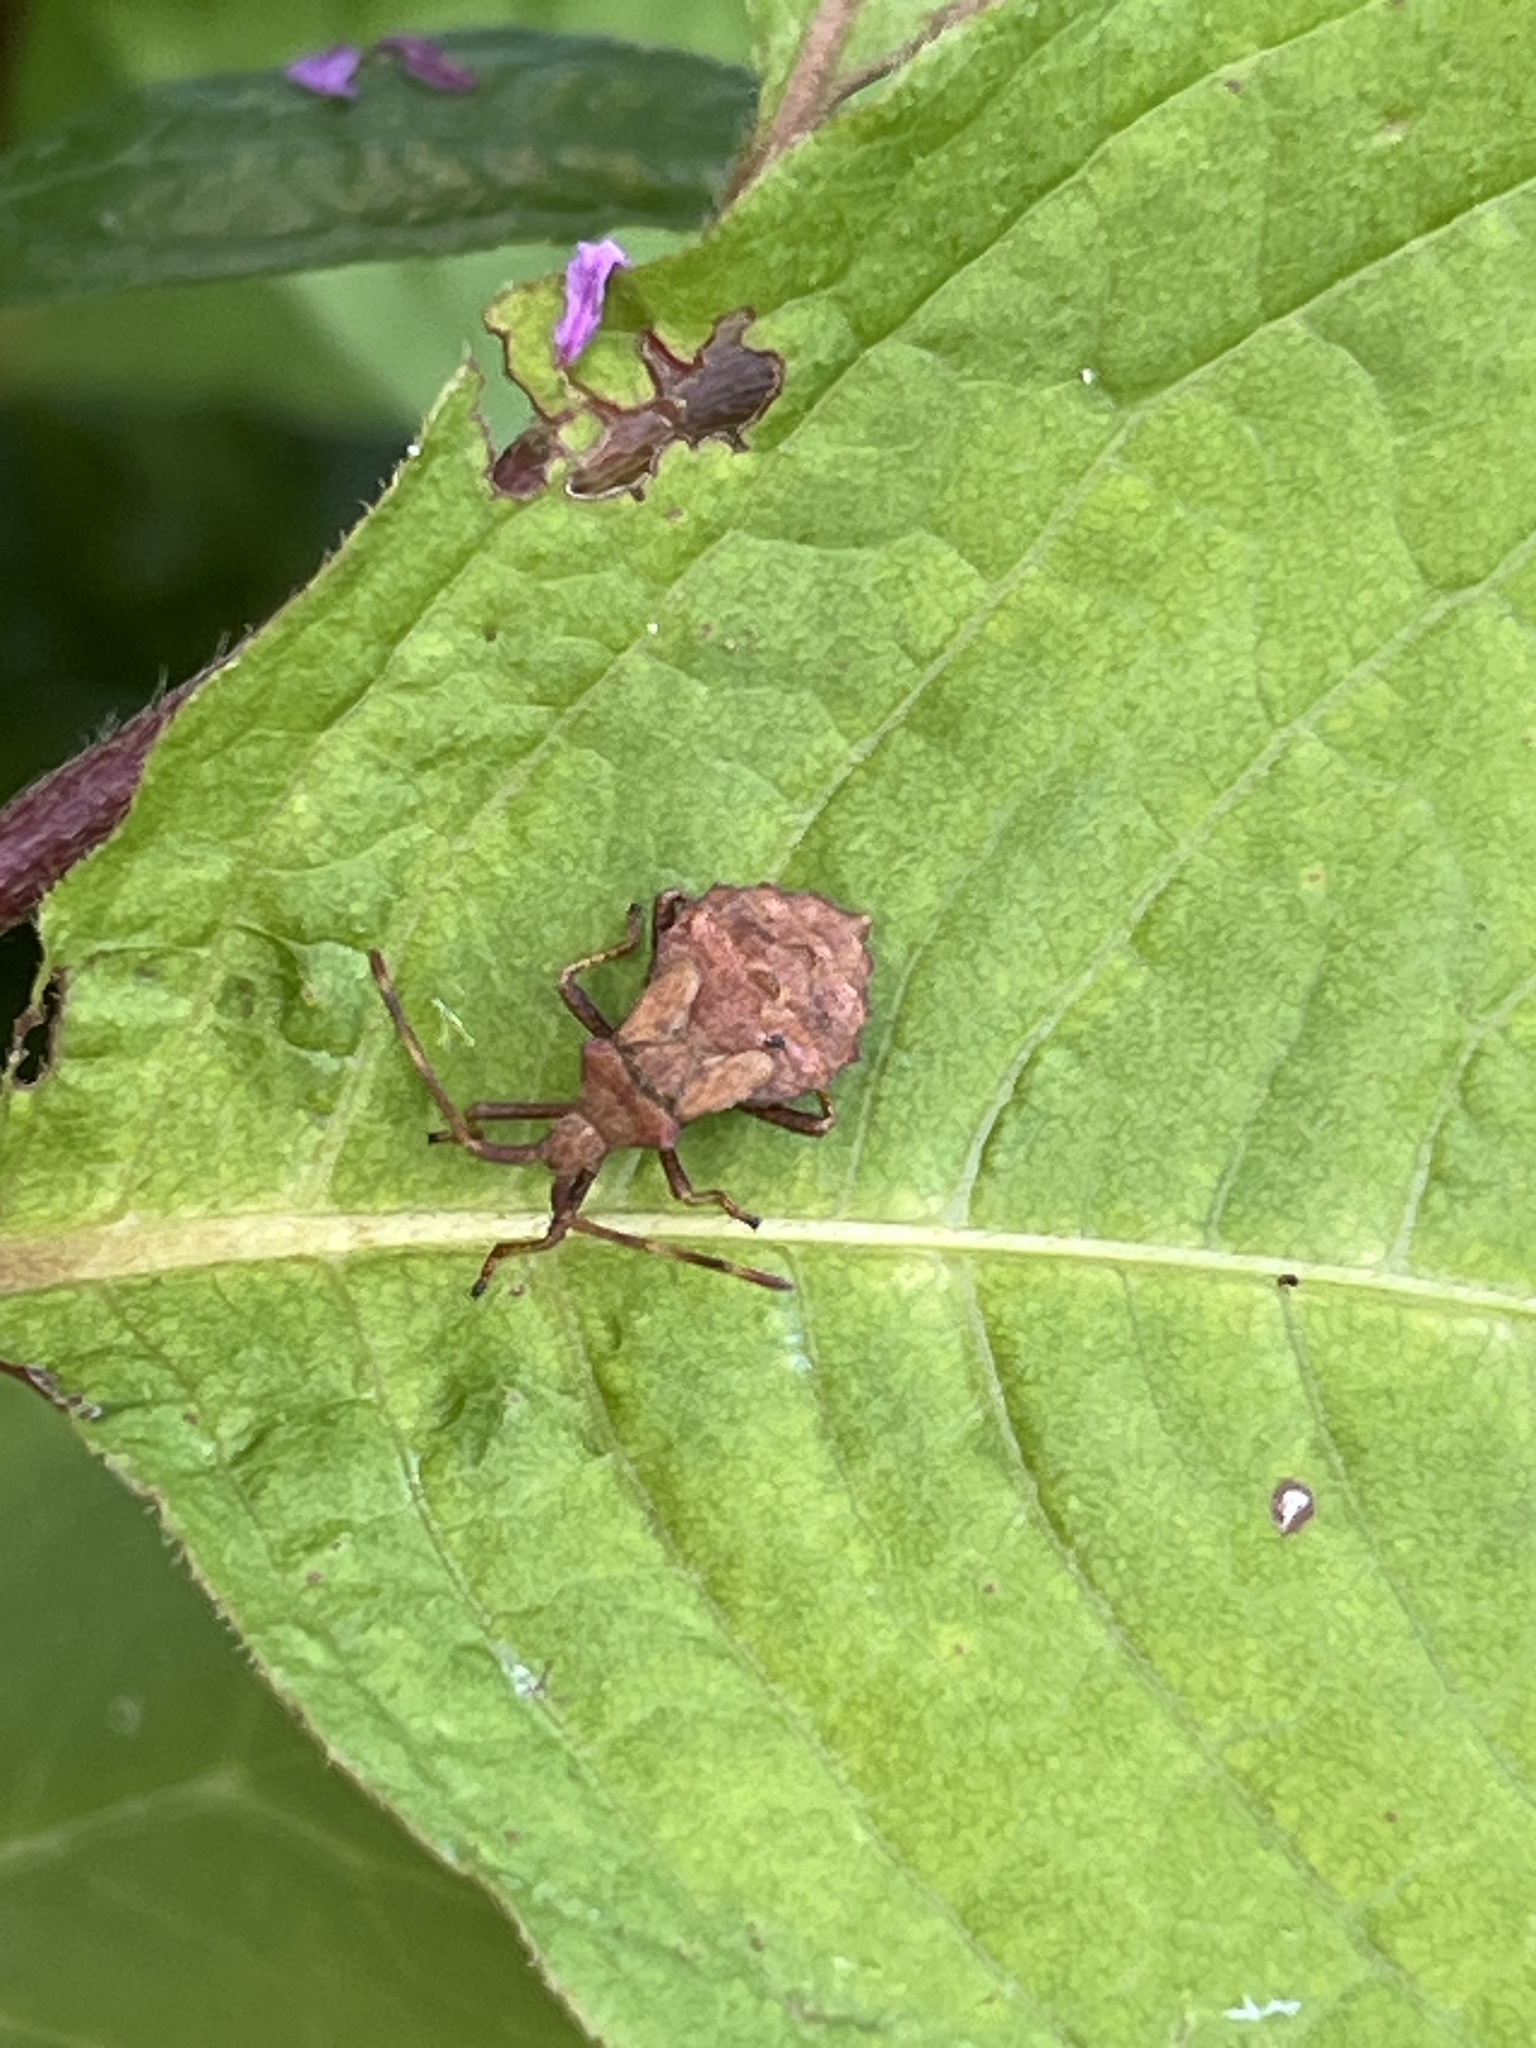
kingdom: Animalia
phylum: Arthropoda
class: Insecta
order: Hemiptera
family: Coreidae
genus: Coreus
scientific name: Coreus marginatus
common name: Dock bug
